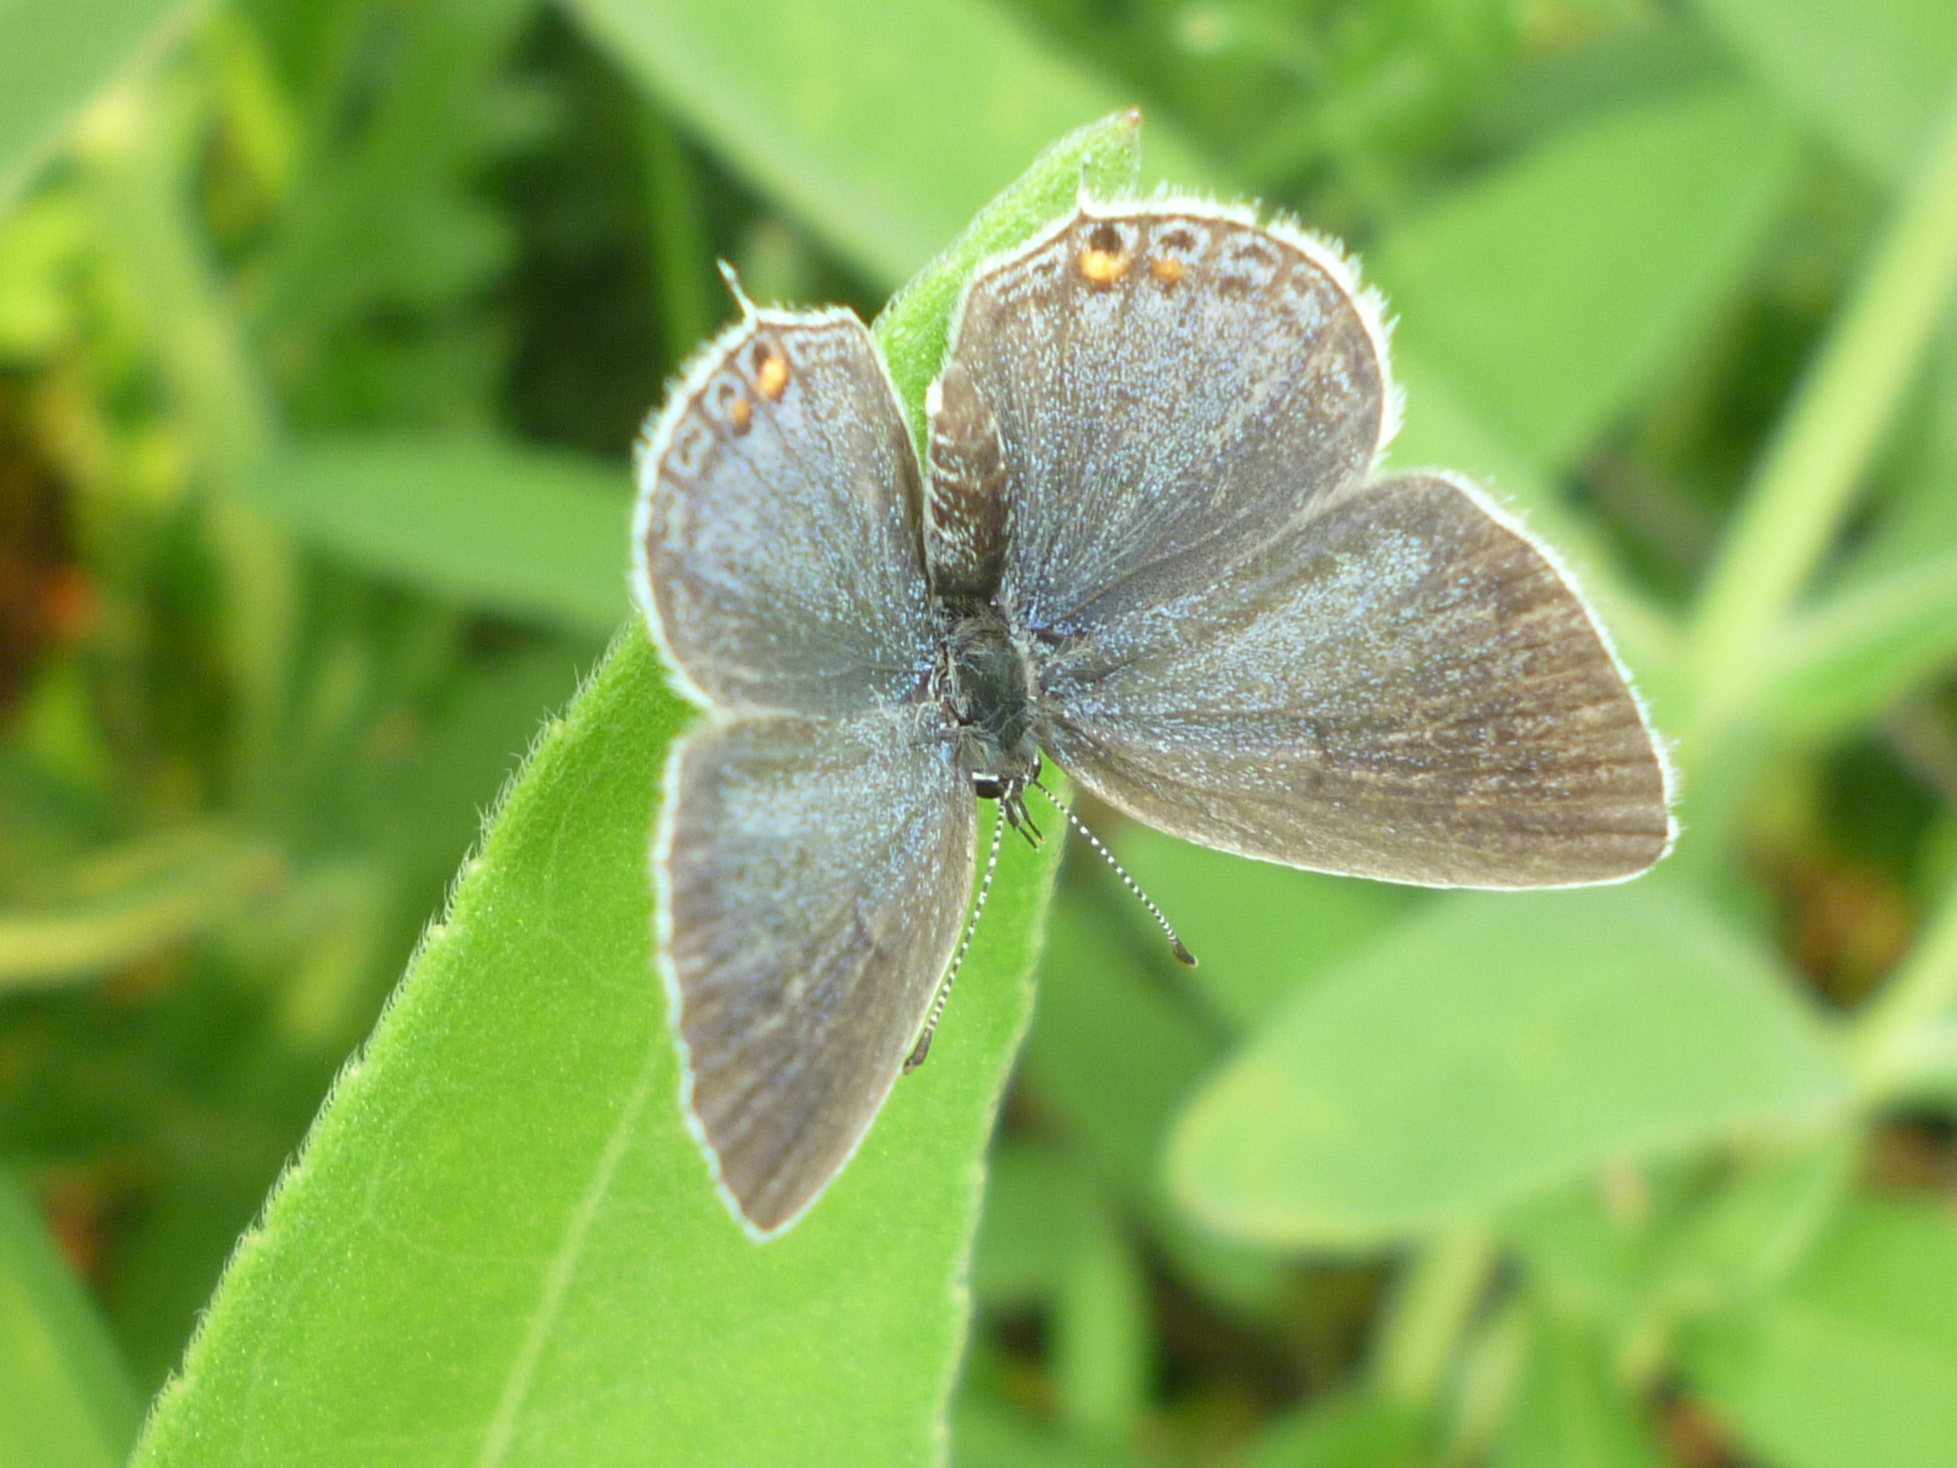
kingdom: Animalia
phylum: Arthropoda
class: Insecta
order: Lepidoptera
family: Lycaenidae
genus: Elkalyce
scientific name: Elkalyce comyntas
